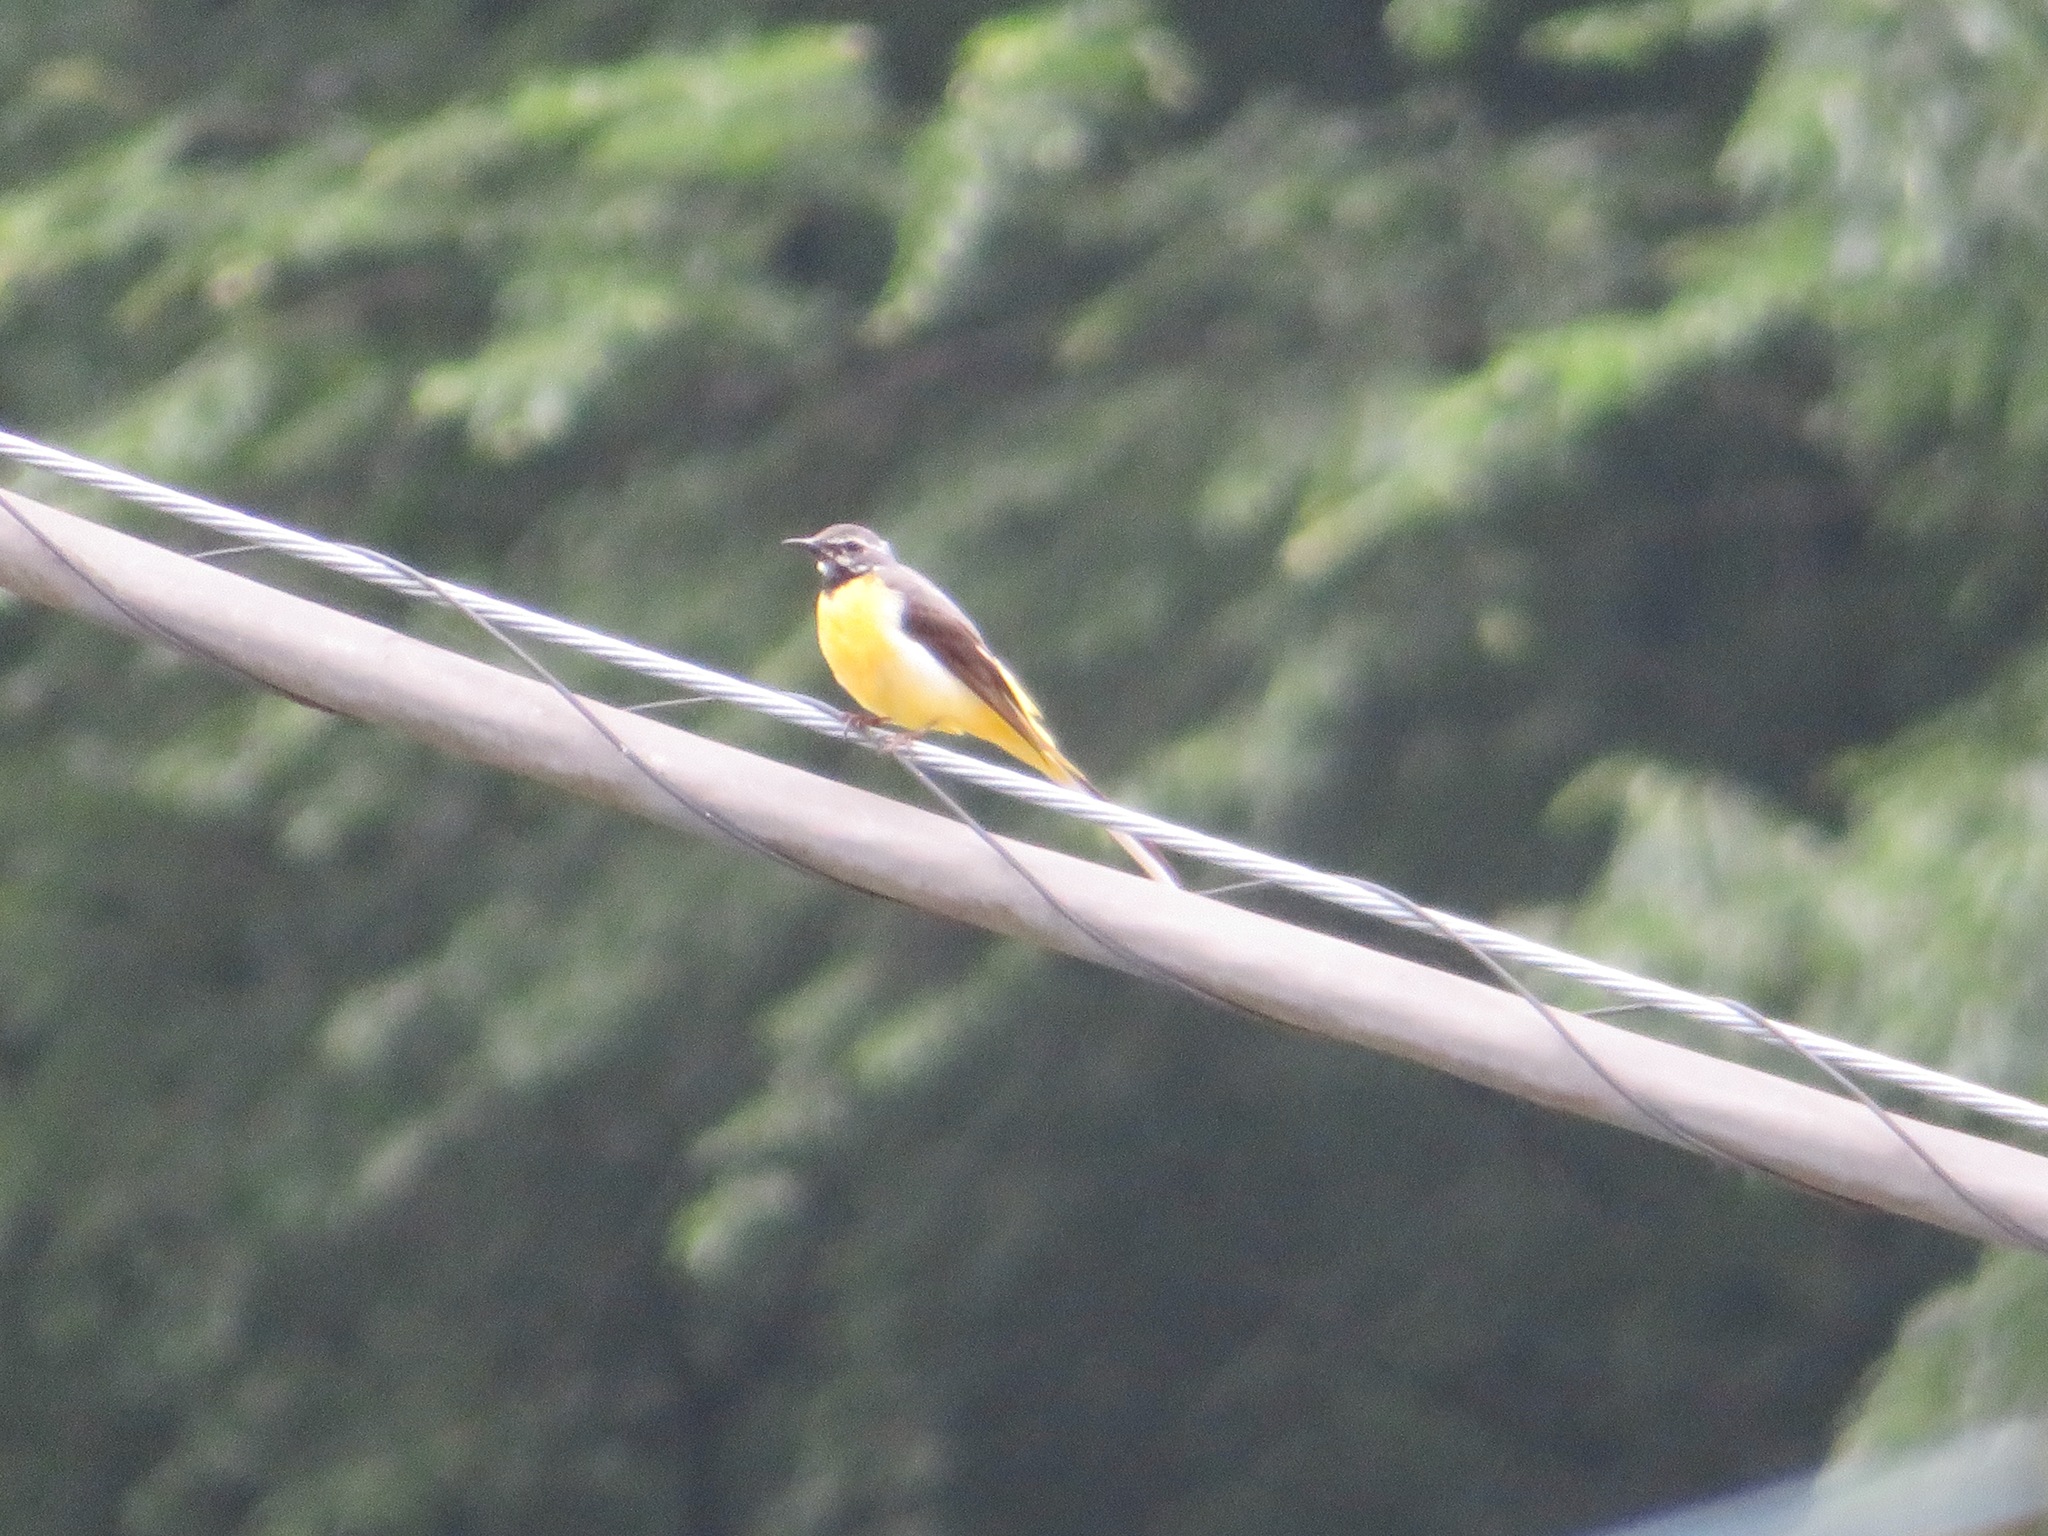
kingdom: Animalia
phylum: Chordata
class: Aves
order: Passeriformes
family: Motacillidae
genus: Motacilla
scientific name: Motacilla cinerea
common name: Grey wagtail
